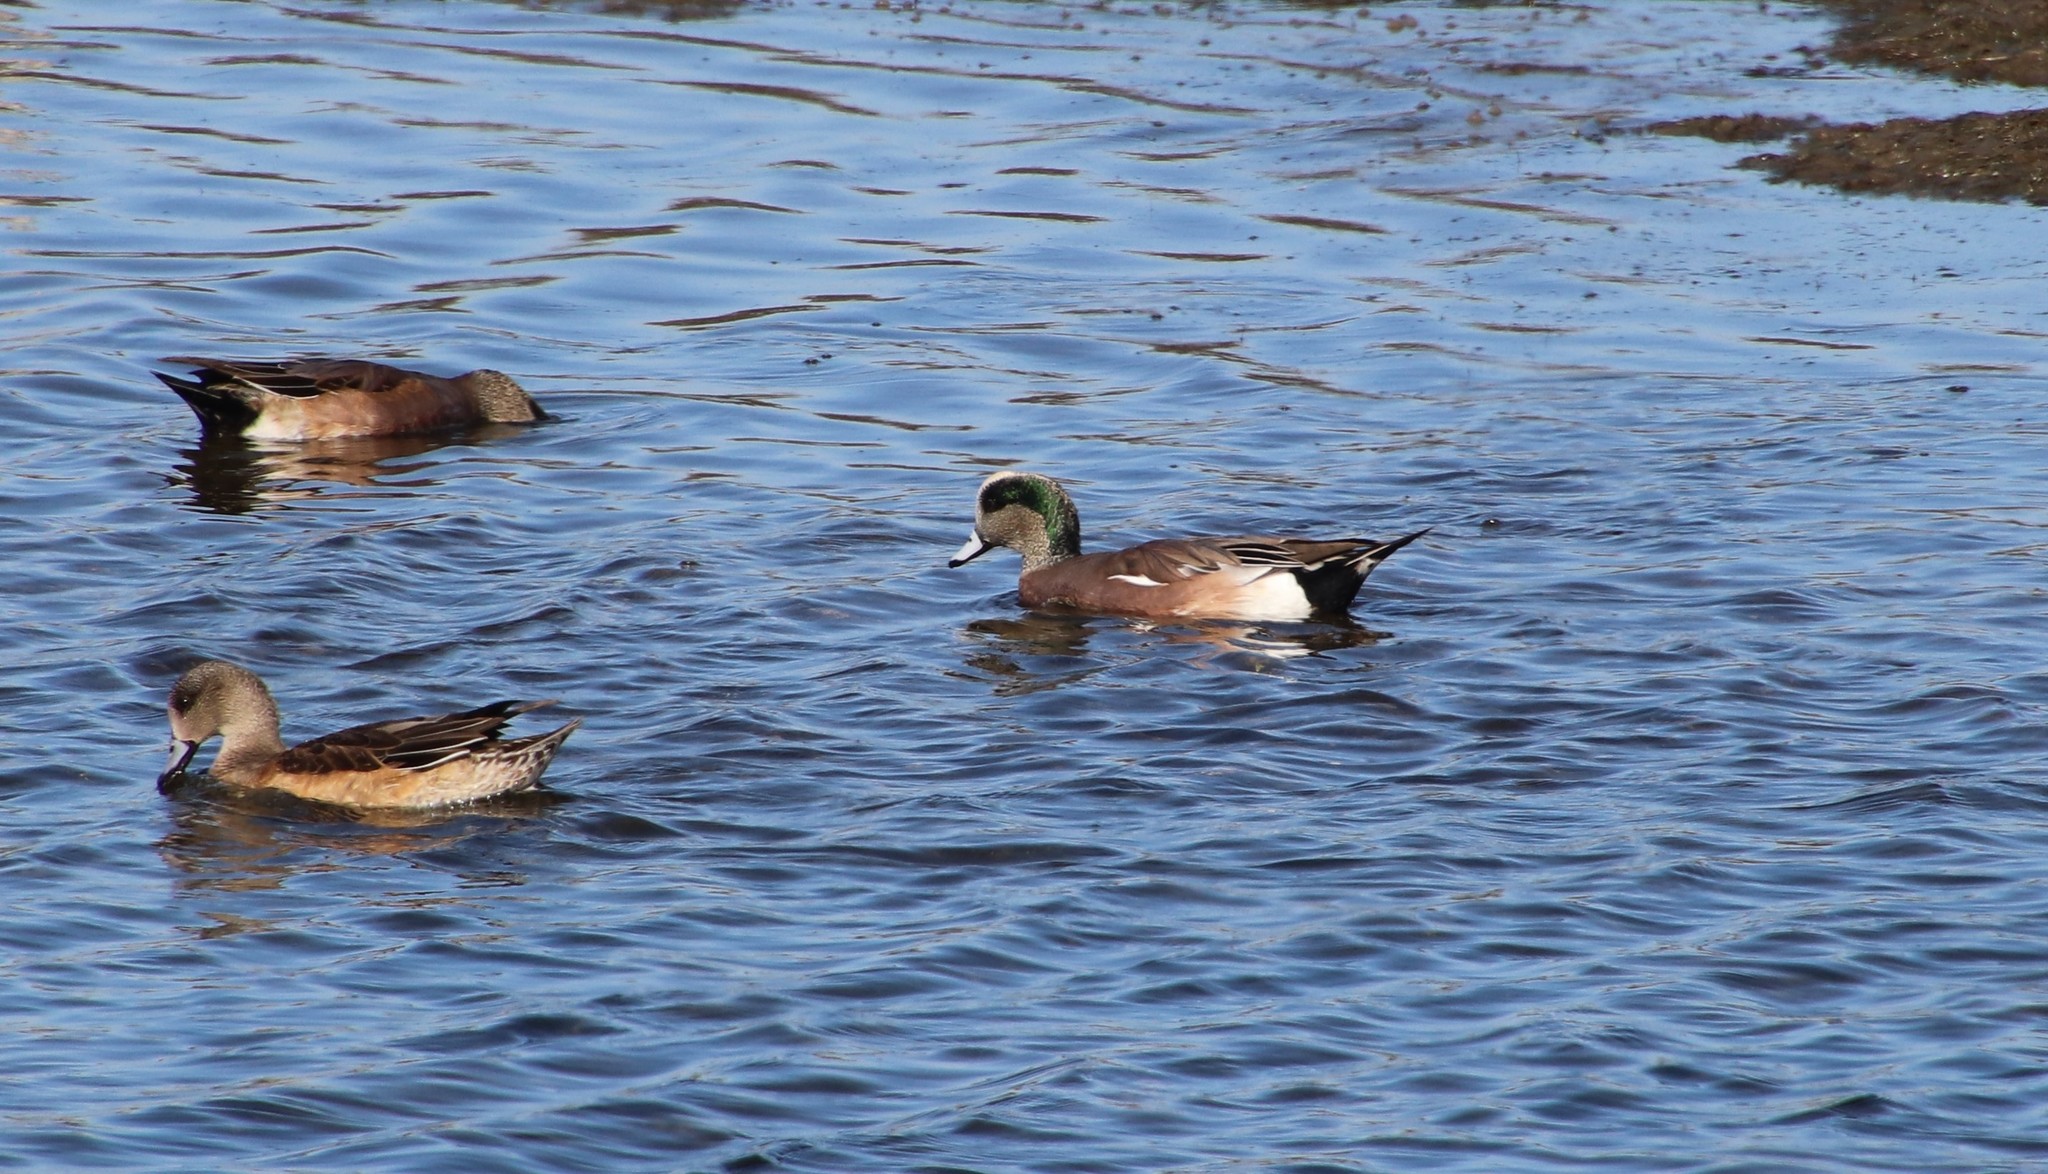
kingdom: Animalia
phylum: Chordata
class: Aves
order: Anseriformes
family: Anatidae
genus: Mareca
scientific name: Mareca americana
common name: American wigeon
